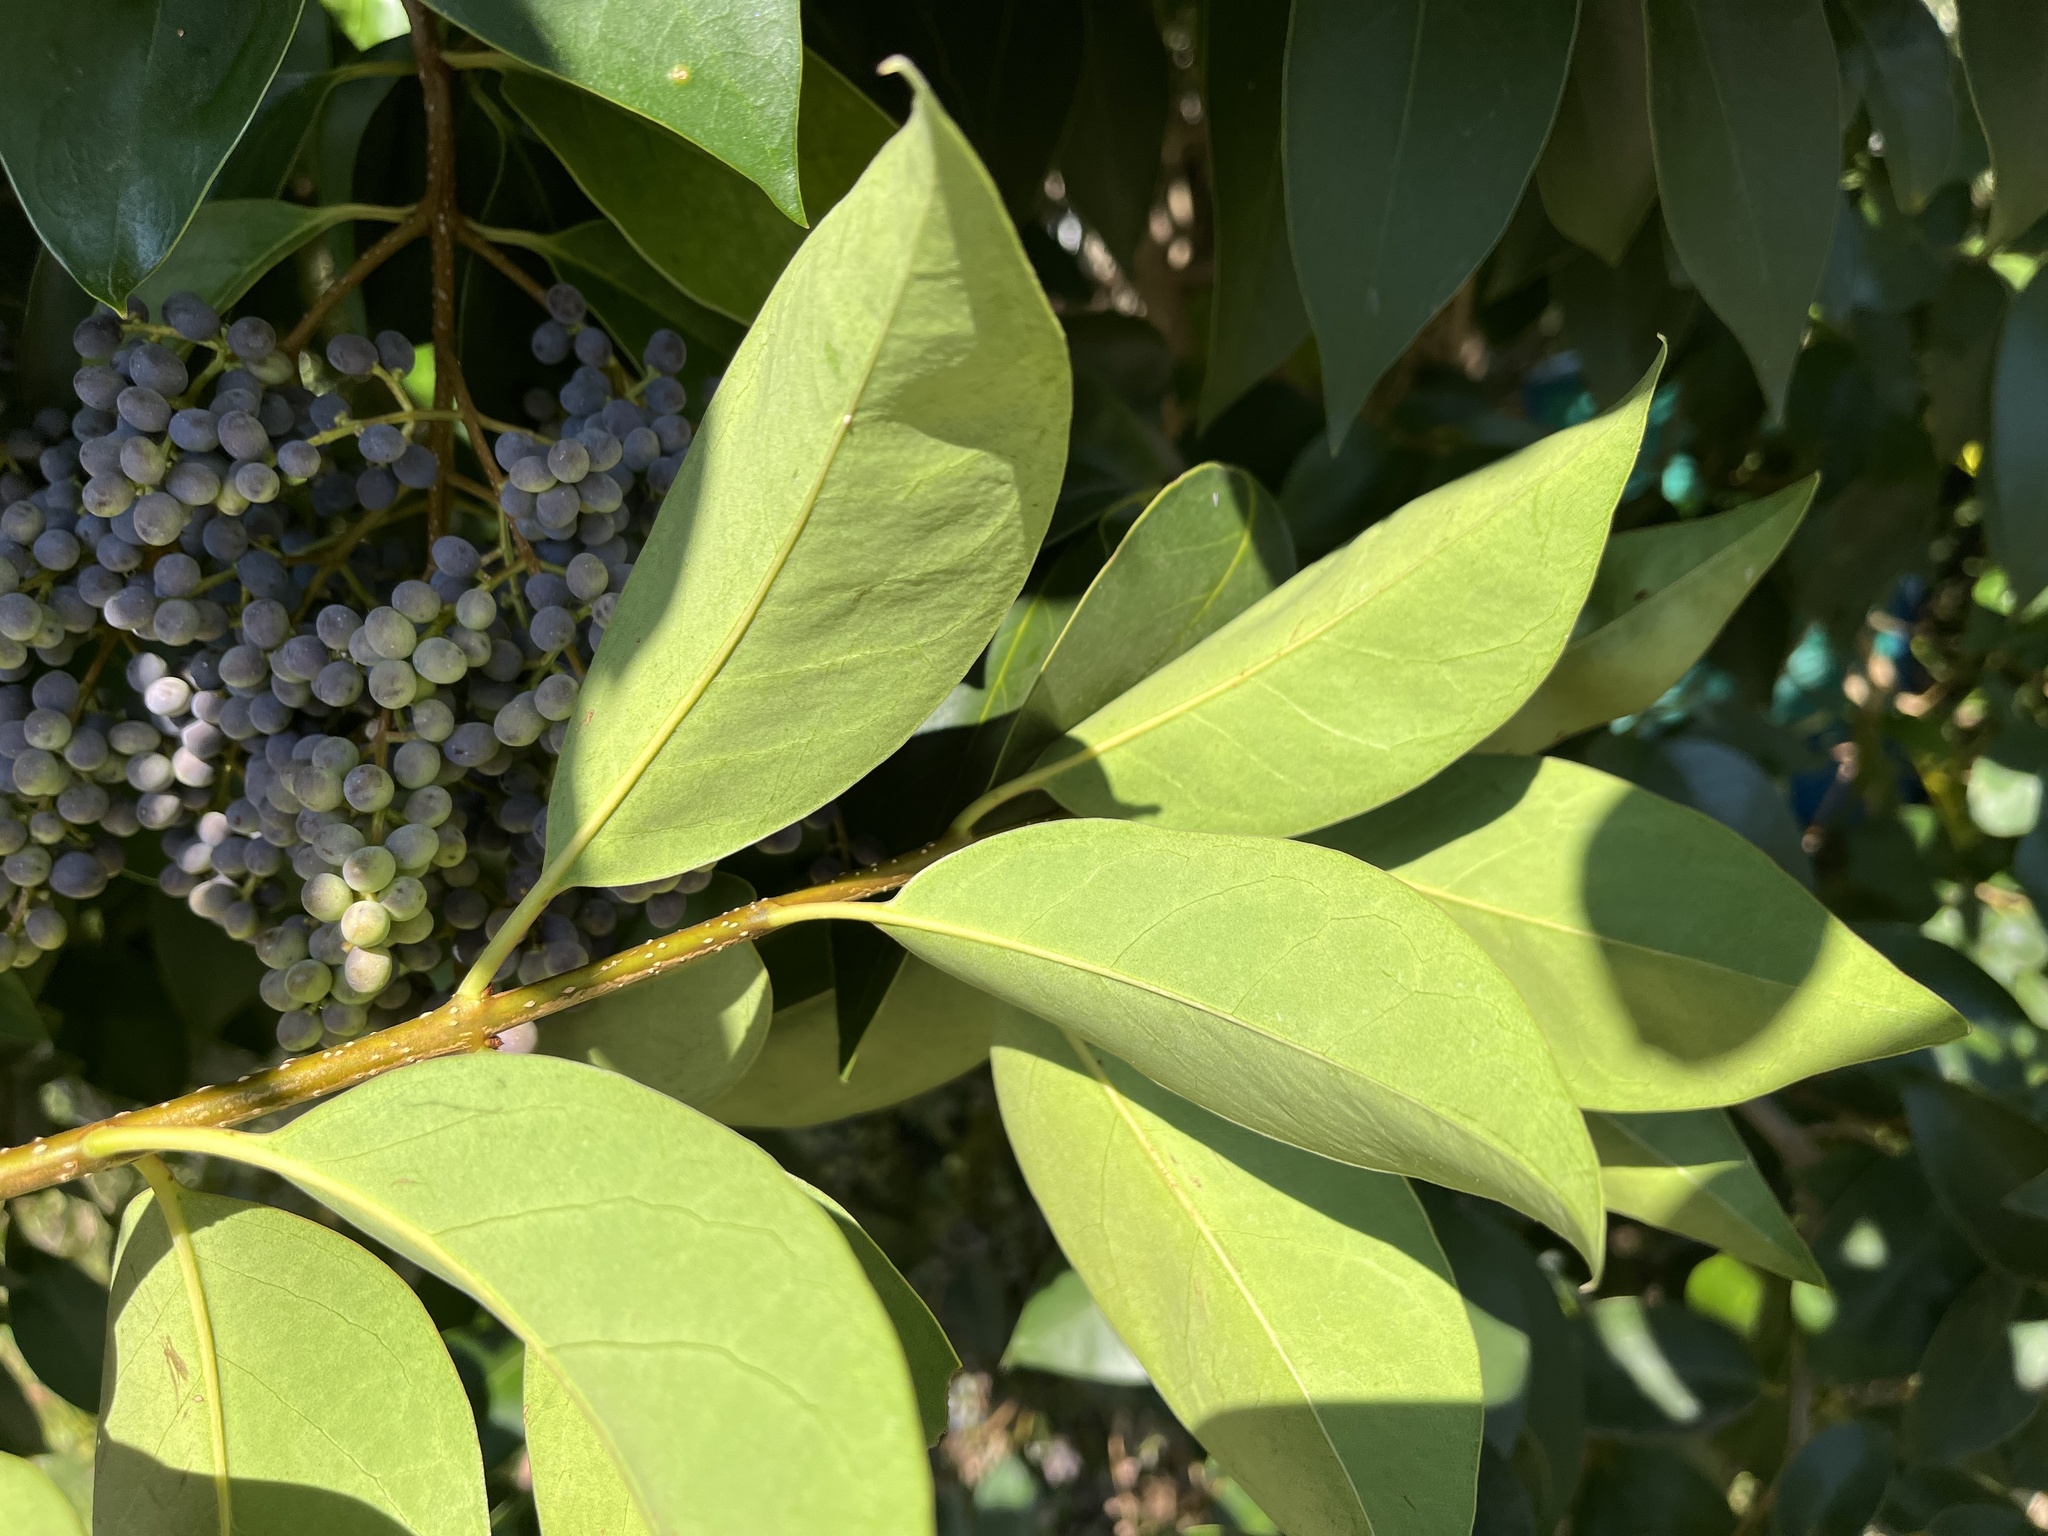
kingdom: Plantae
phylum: Tracheophyta
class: Magnoliopsida
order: Lamiales
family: Oleaceae
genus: Ligustrum
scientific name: Ligustrum lucidum
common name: Glossy privet
